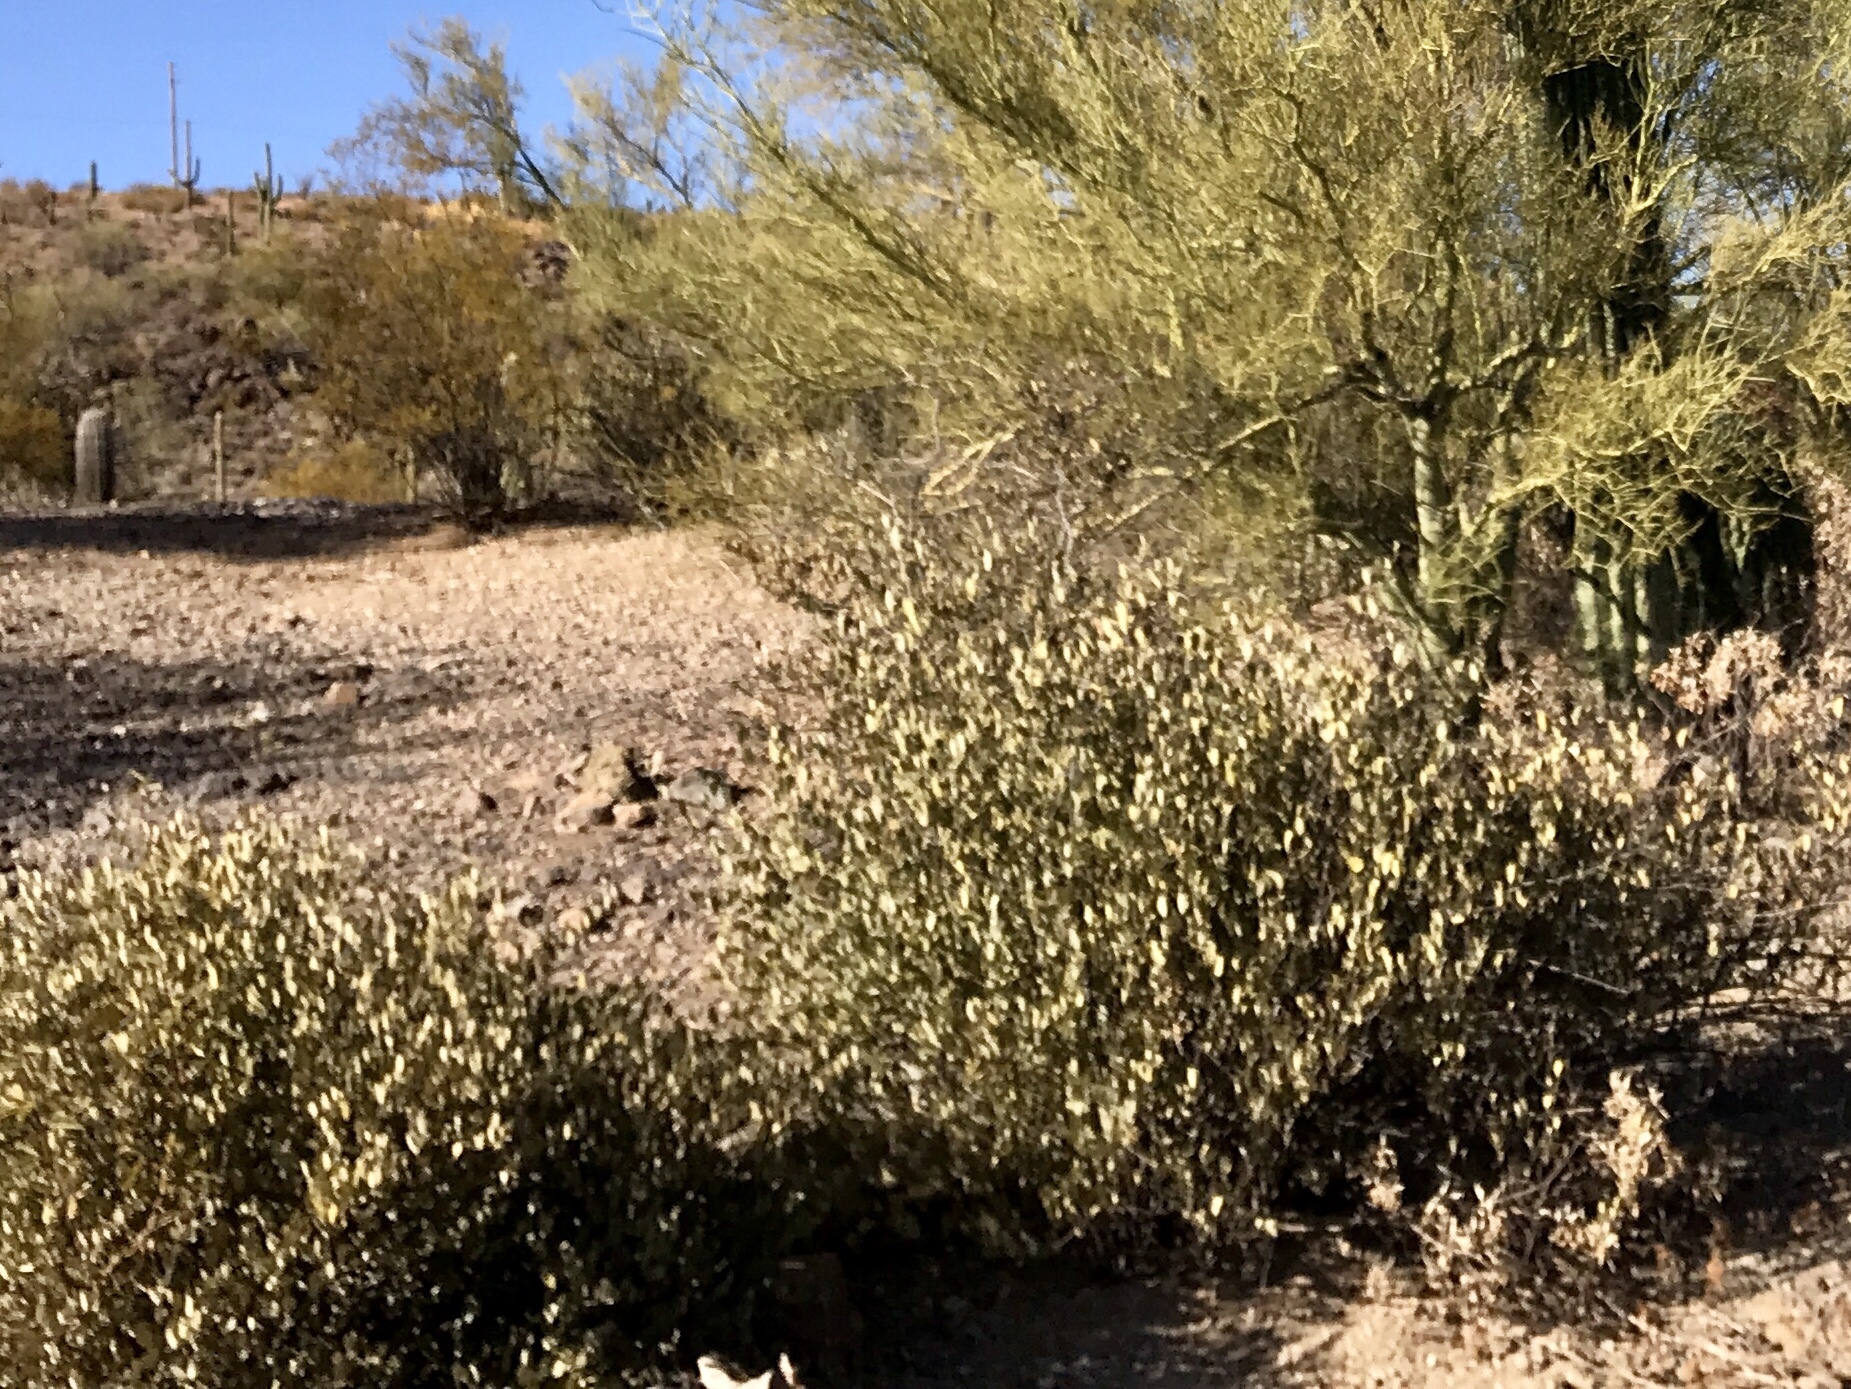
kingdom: Plantae
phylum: Tracheophyta
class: Magnoliopsida
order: Caryophyllales
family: Simmondsiaceae
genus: Simmondsia
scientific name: Simmondsia chinensis
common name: Jojoba
